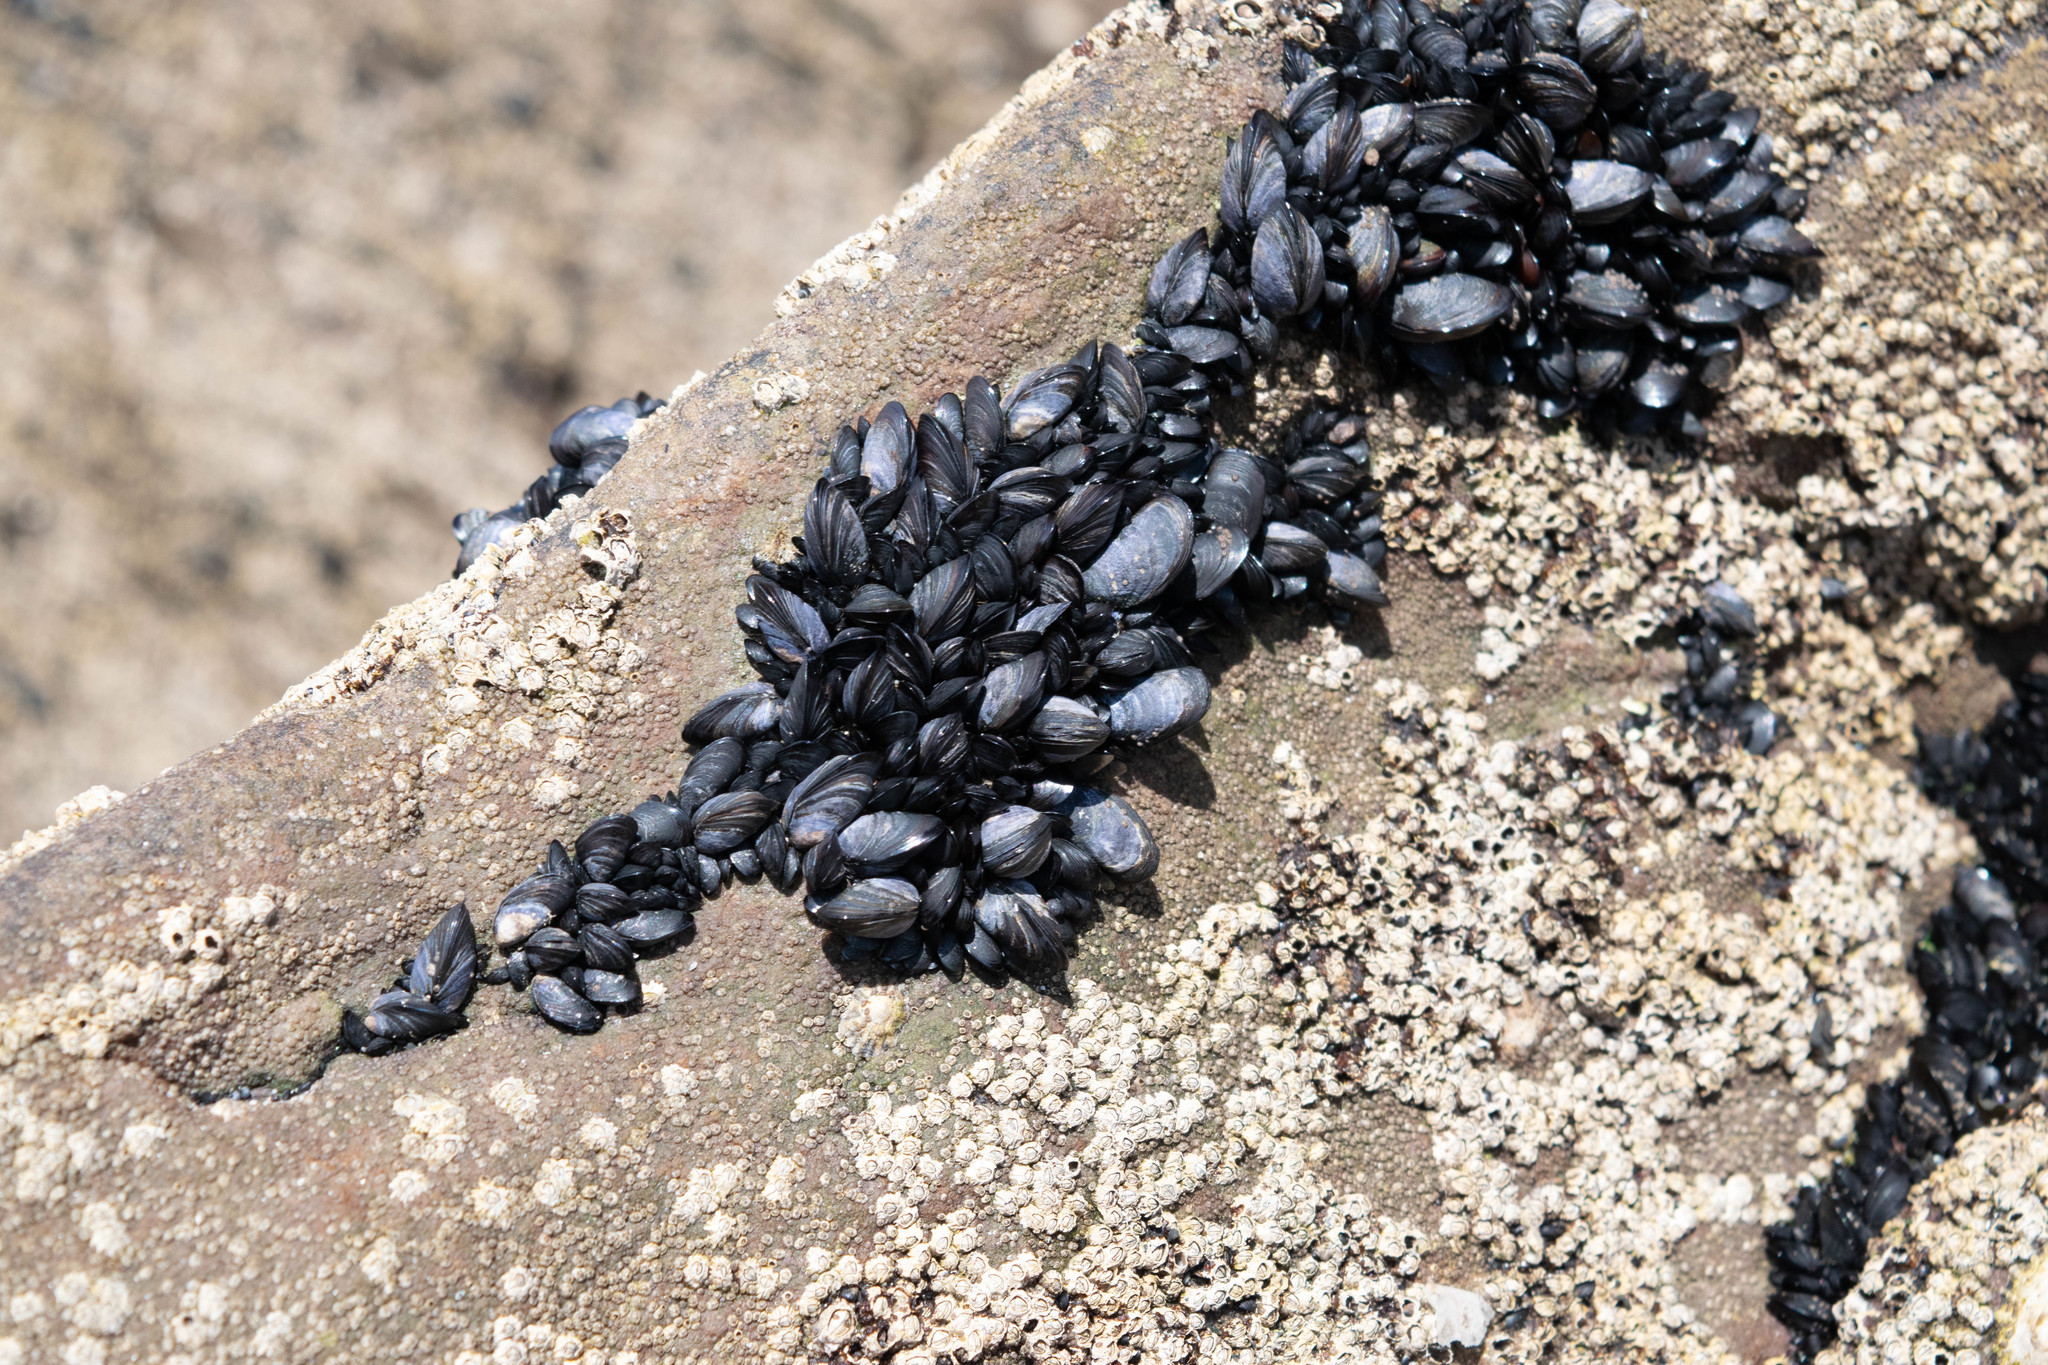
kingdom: Animalia
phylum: Mollusca
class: Bivalvia
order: Mytilida
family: Mytilidae
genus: Mytilus
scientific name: Mytilus edulis
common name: Blue mussel
